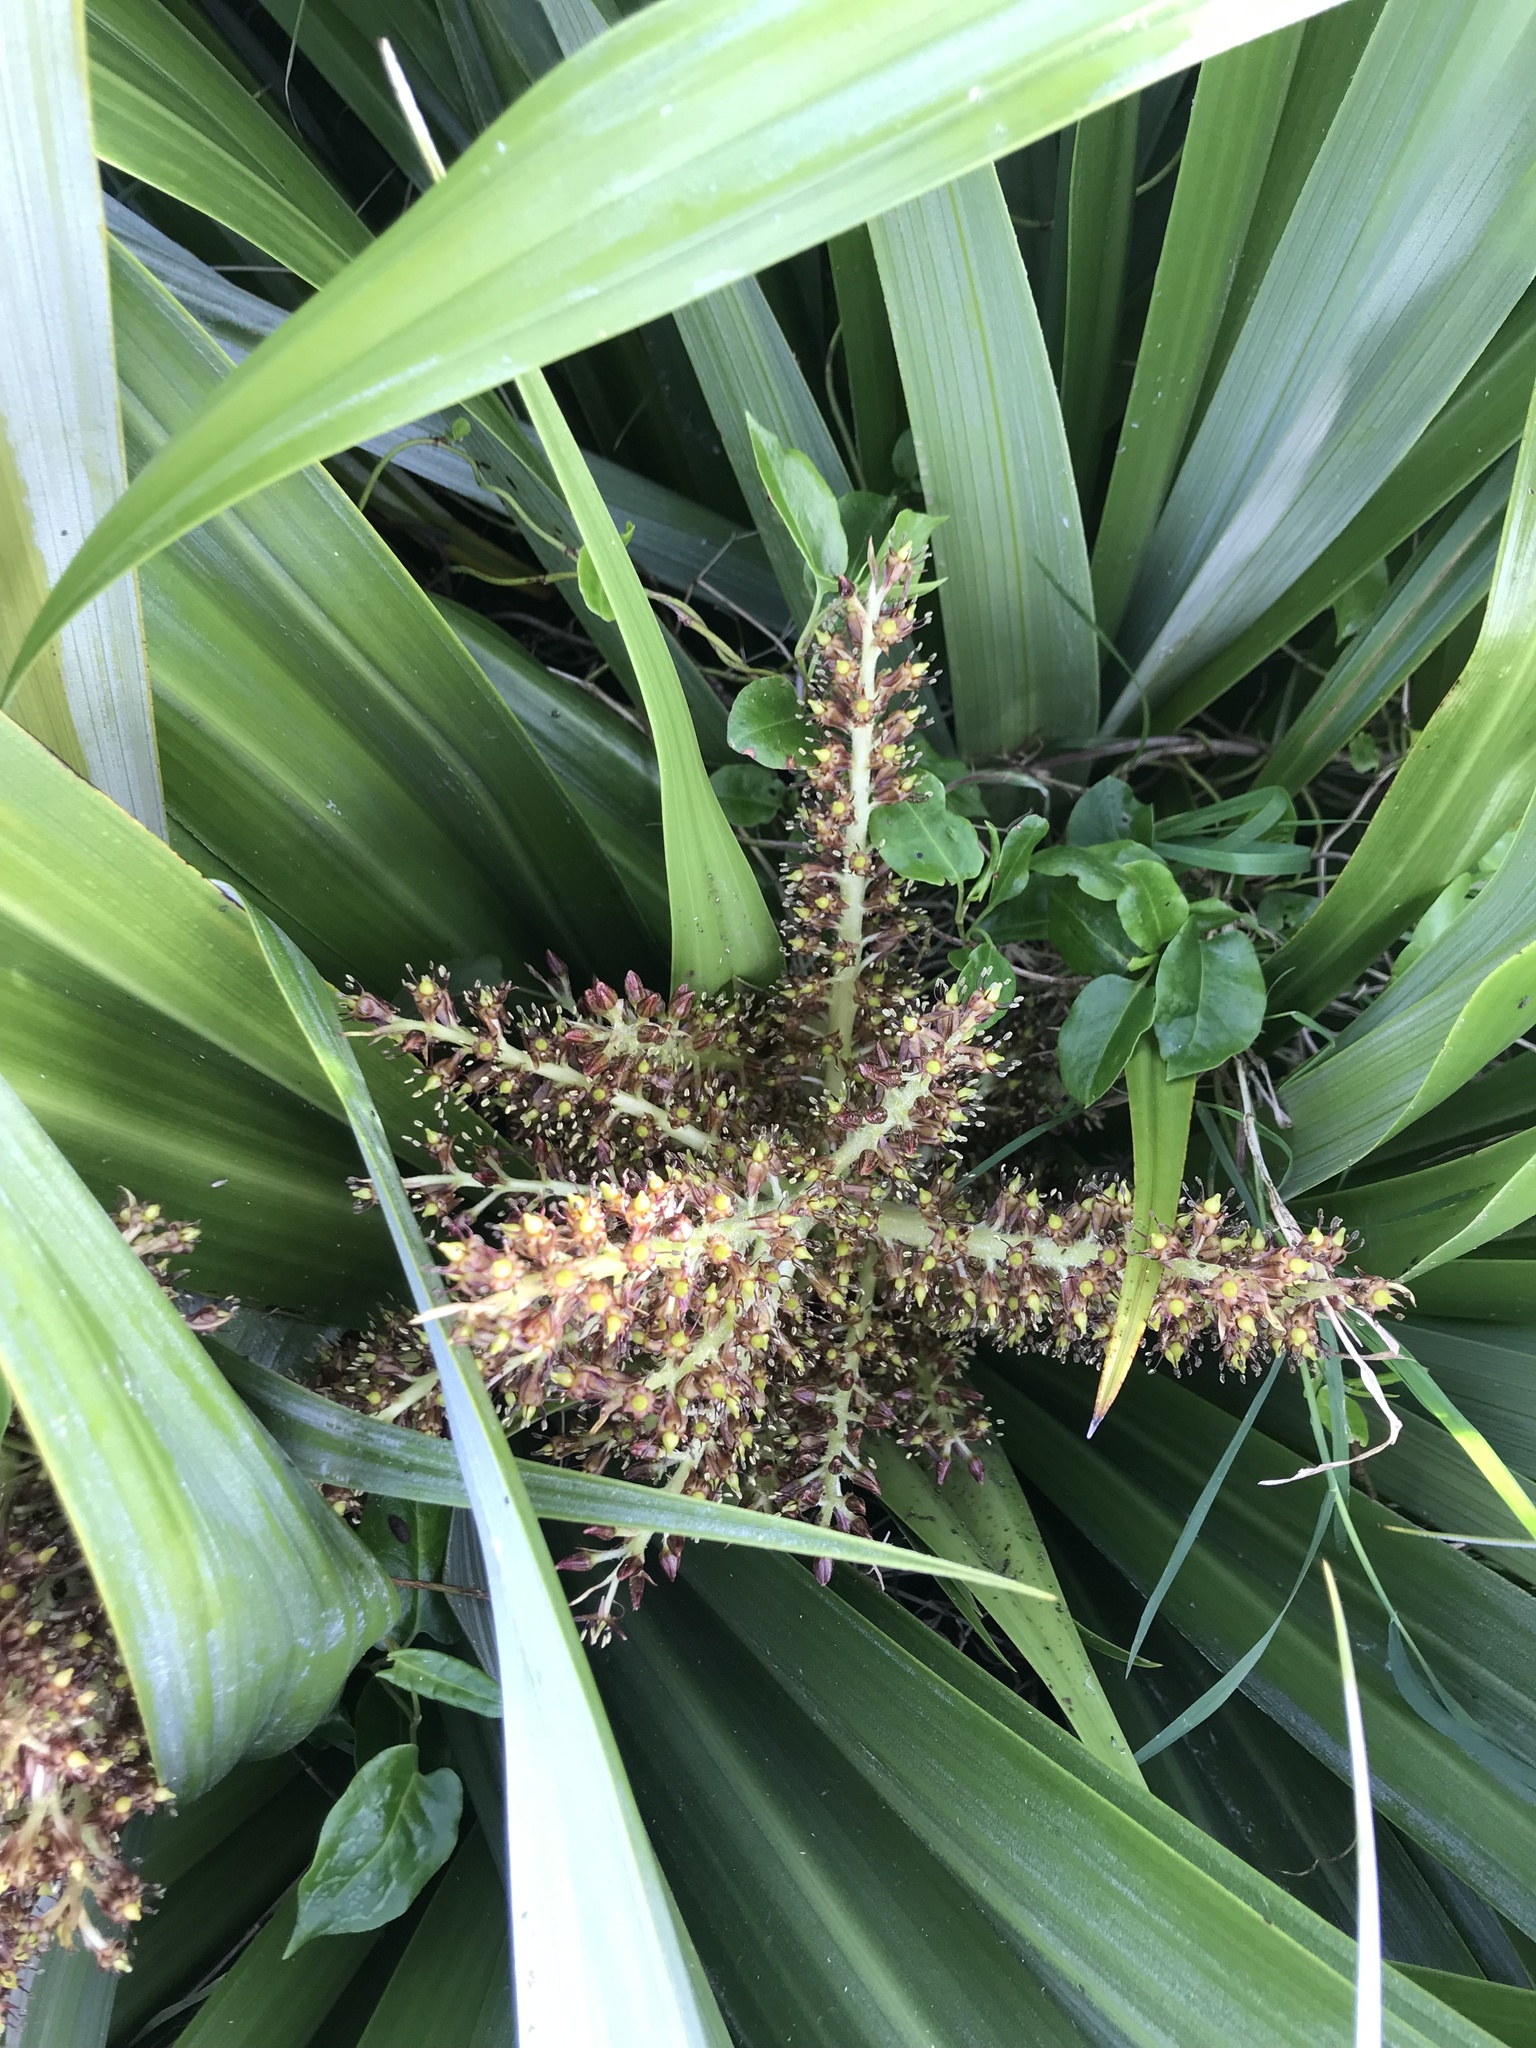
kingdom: Plantae
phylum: Tracheophyta
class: Liliopsida
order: Asparagales
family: Asteliaceae
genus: Astelia
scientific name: Astelia chathamica
